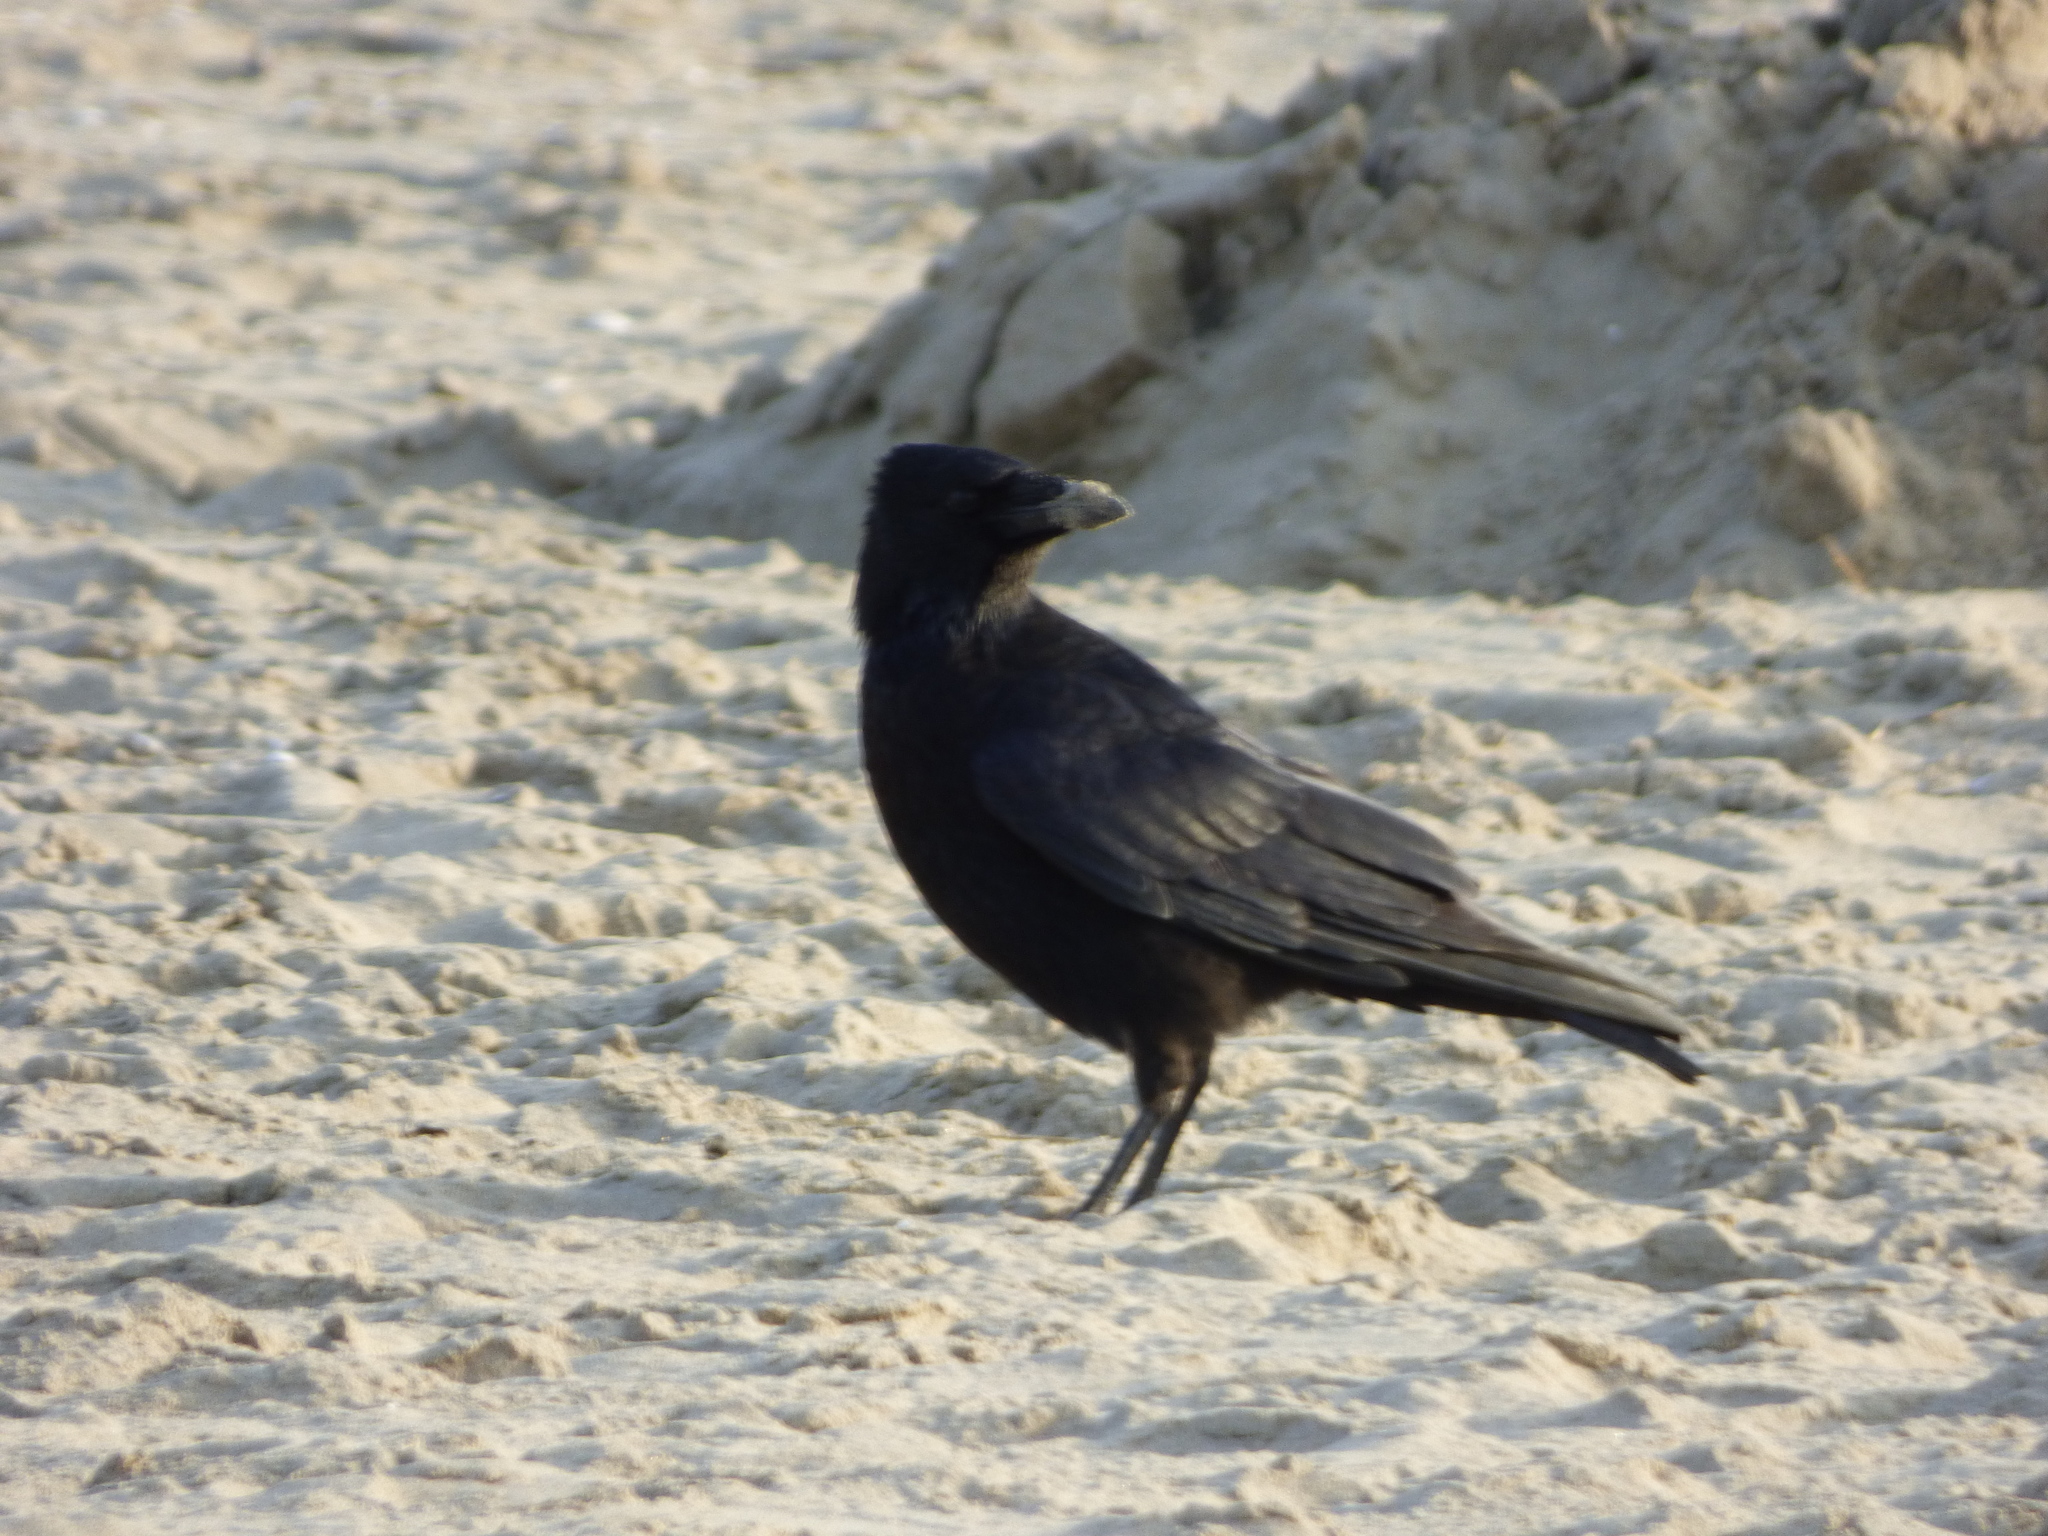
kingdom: Animalia
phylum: Chordata
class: Aves
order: Passeriformes
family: Corvidae
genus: Corvus
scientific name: Corvus corone
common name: Carrion crow
